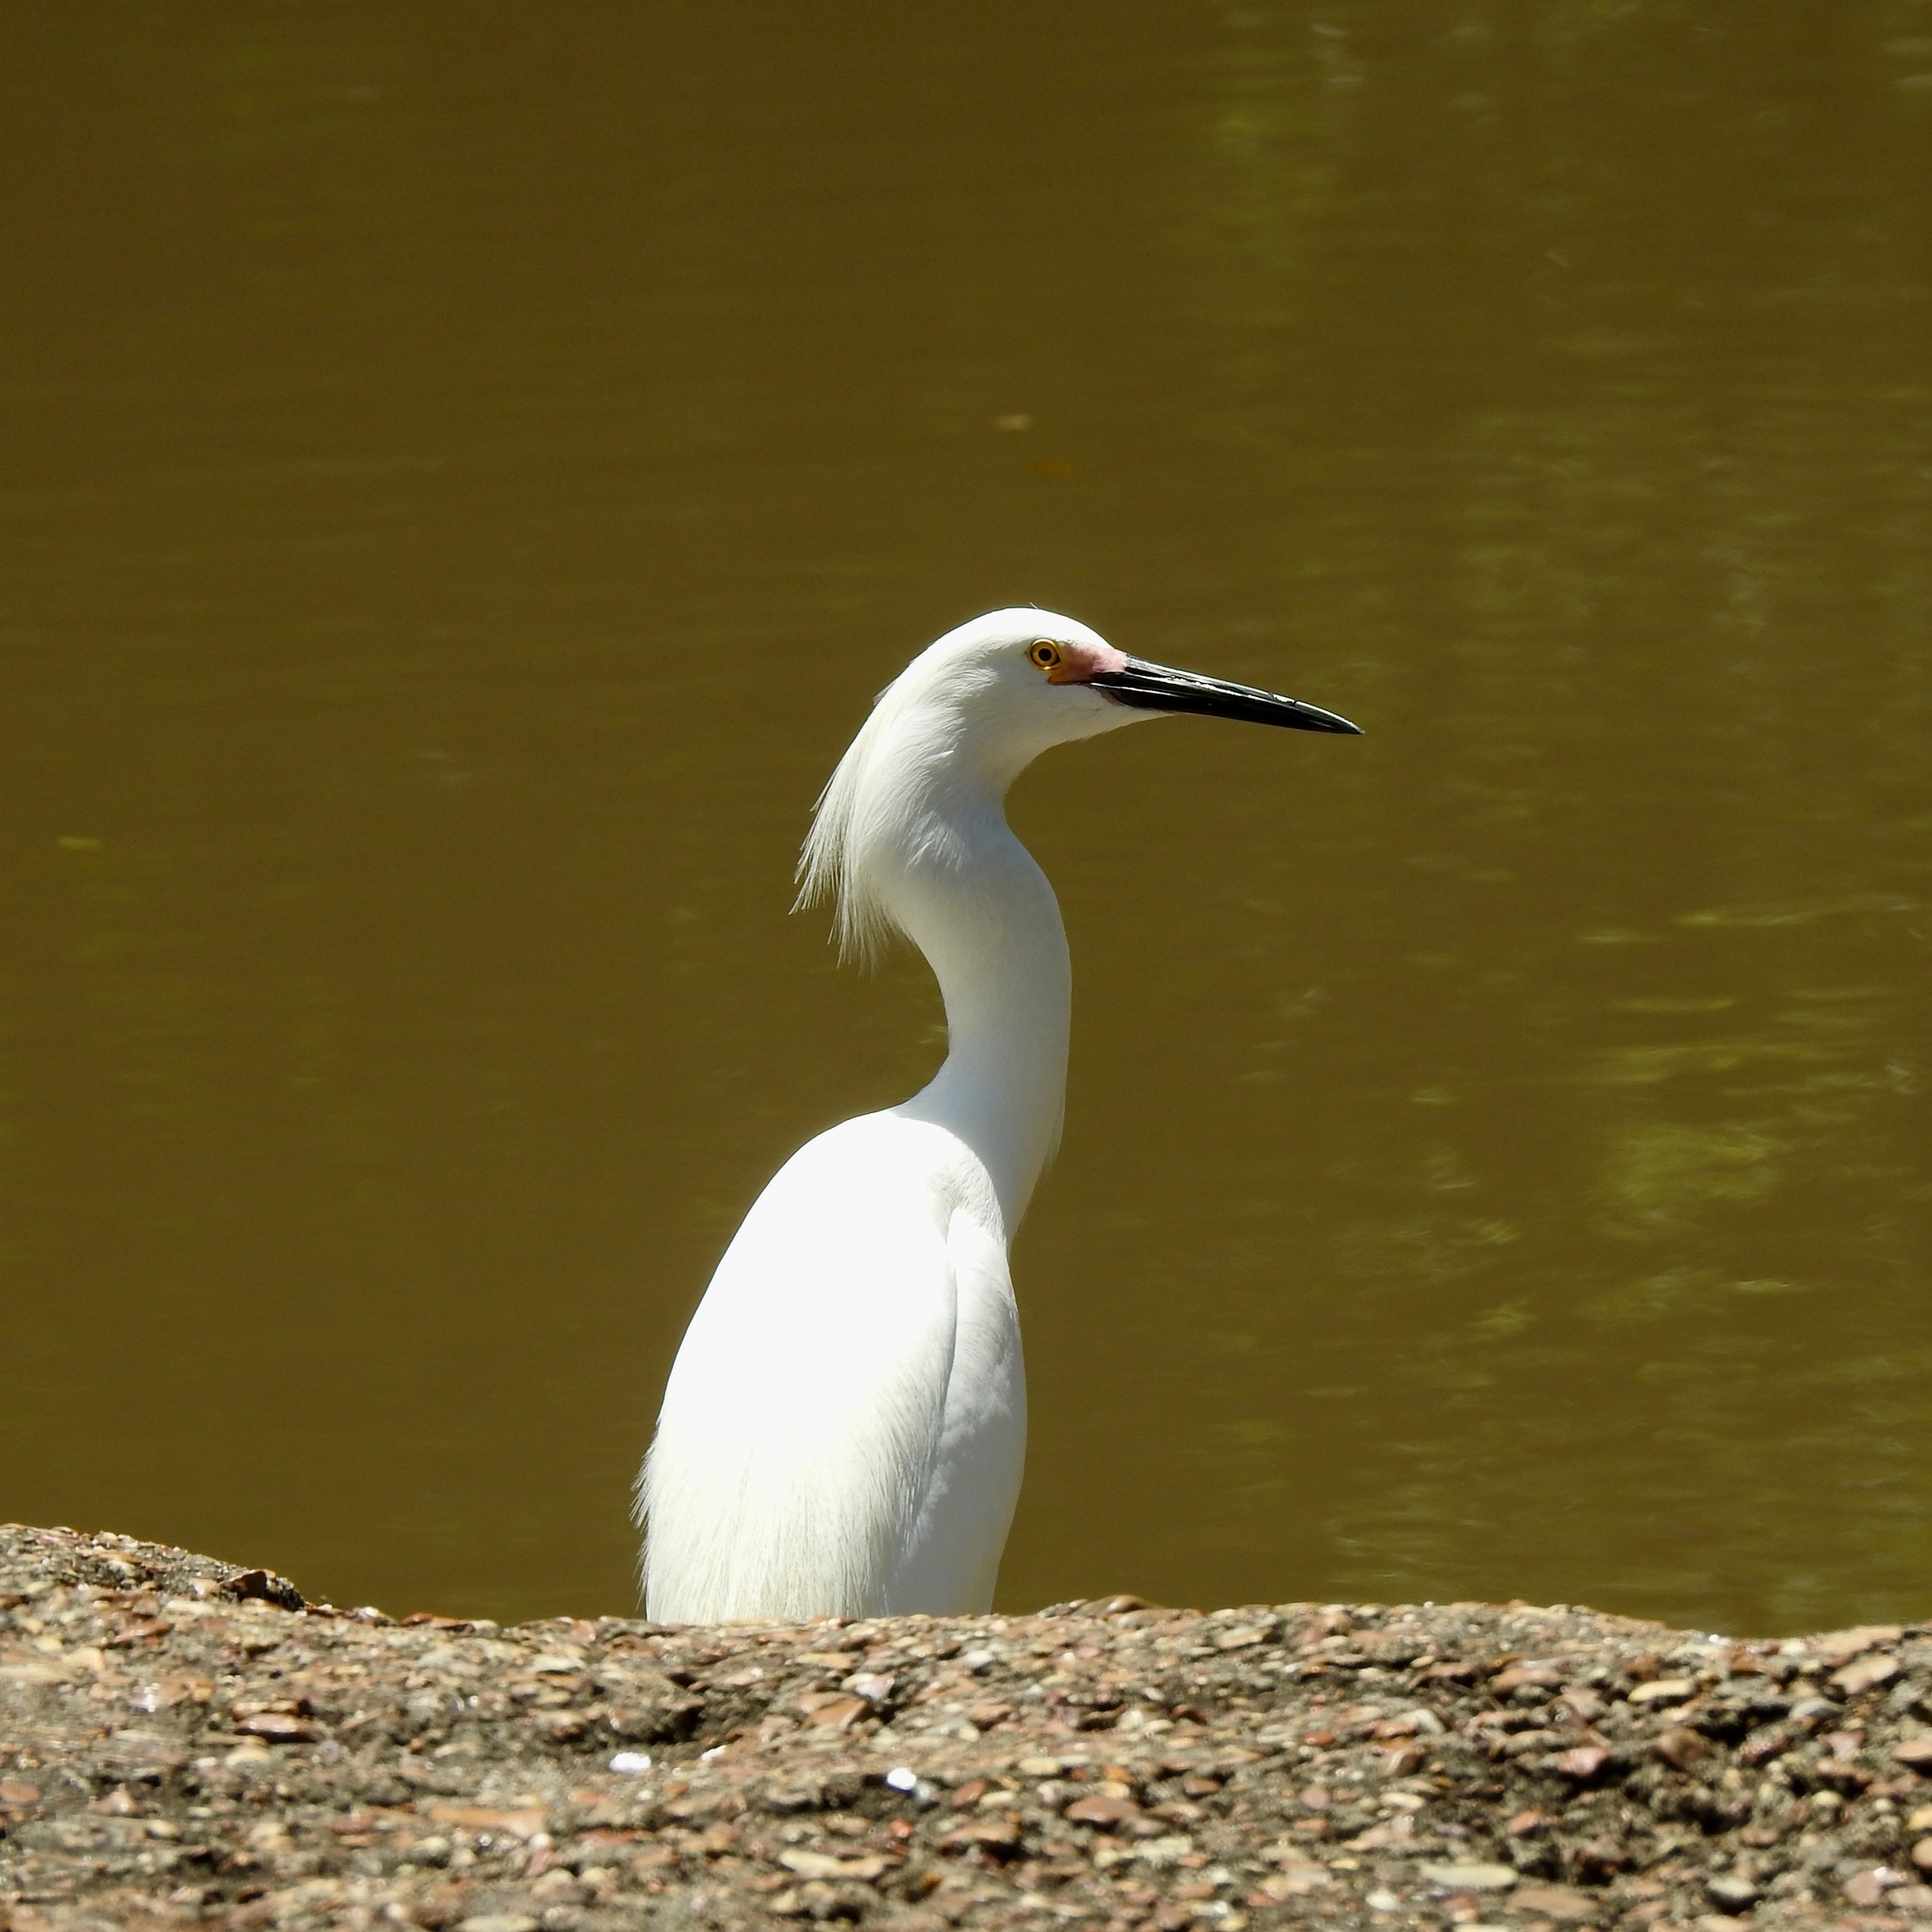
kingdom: Animalia
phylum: Chordata
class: Aves
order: Pelecaniformes
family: Ardeidae
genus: Egretta
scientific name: Egretta thula
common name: Snowy egret
